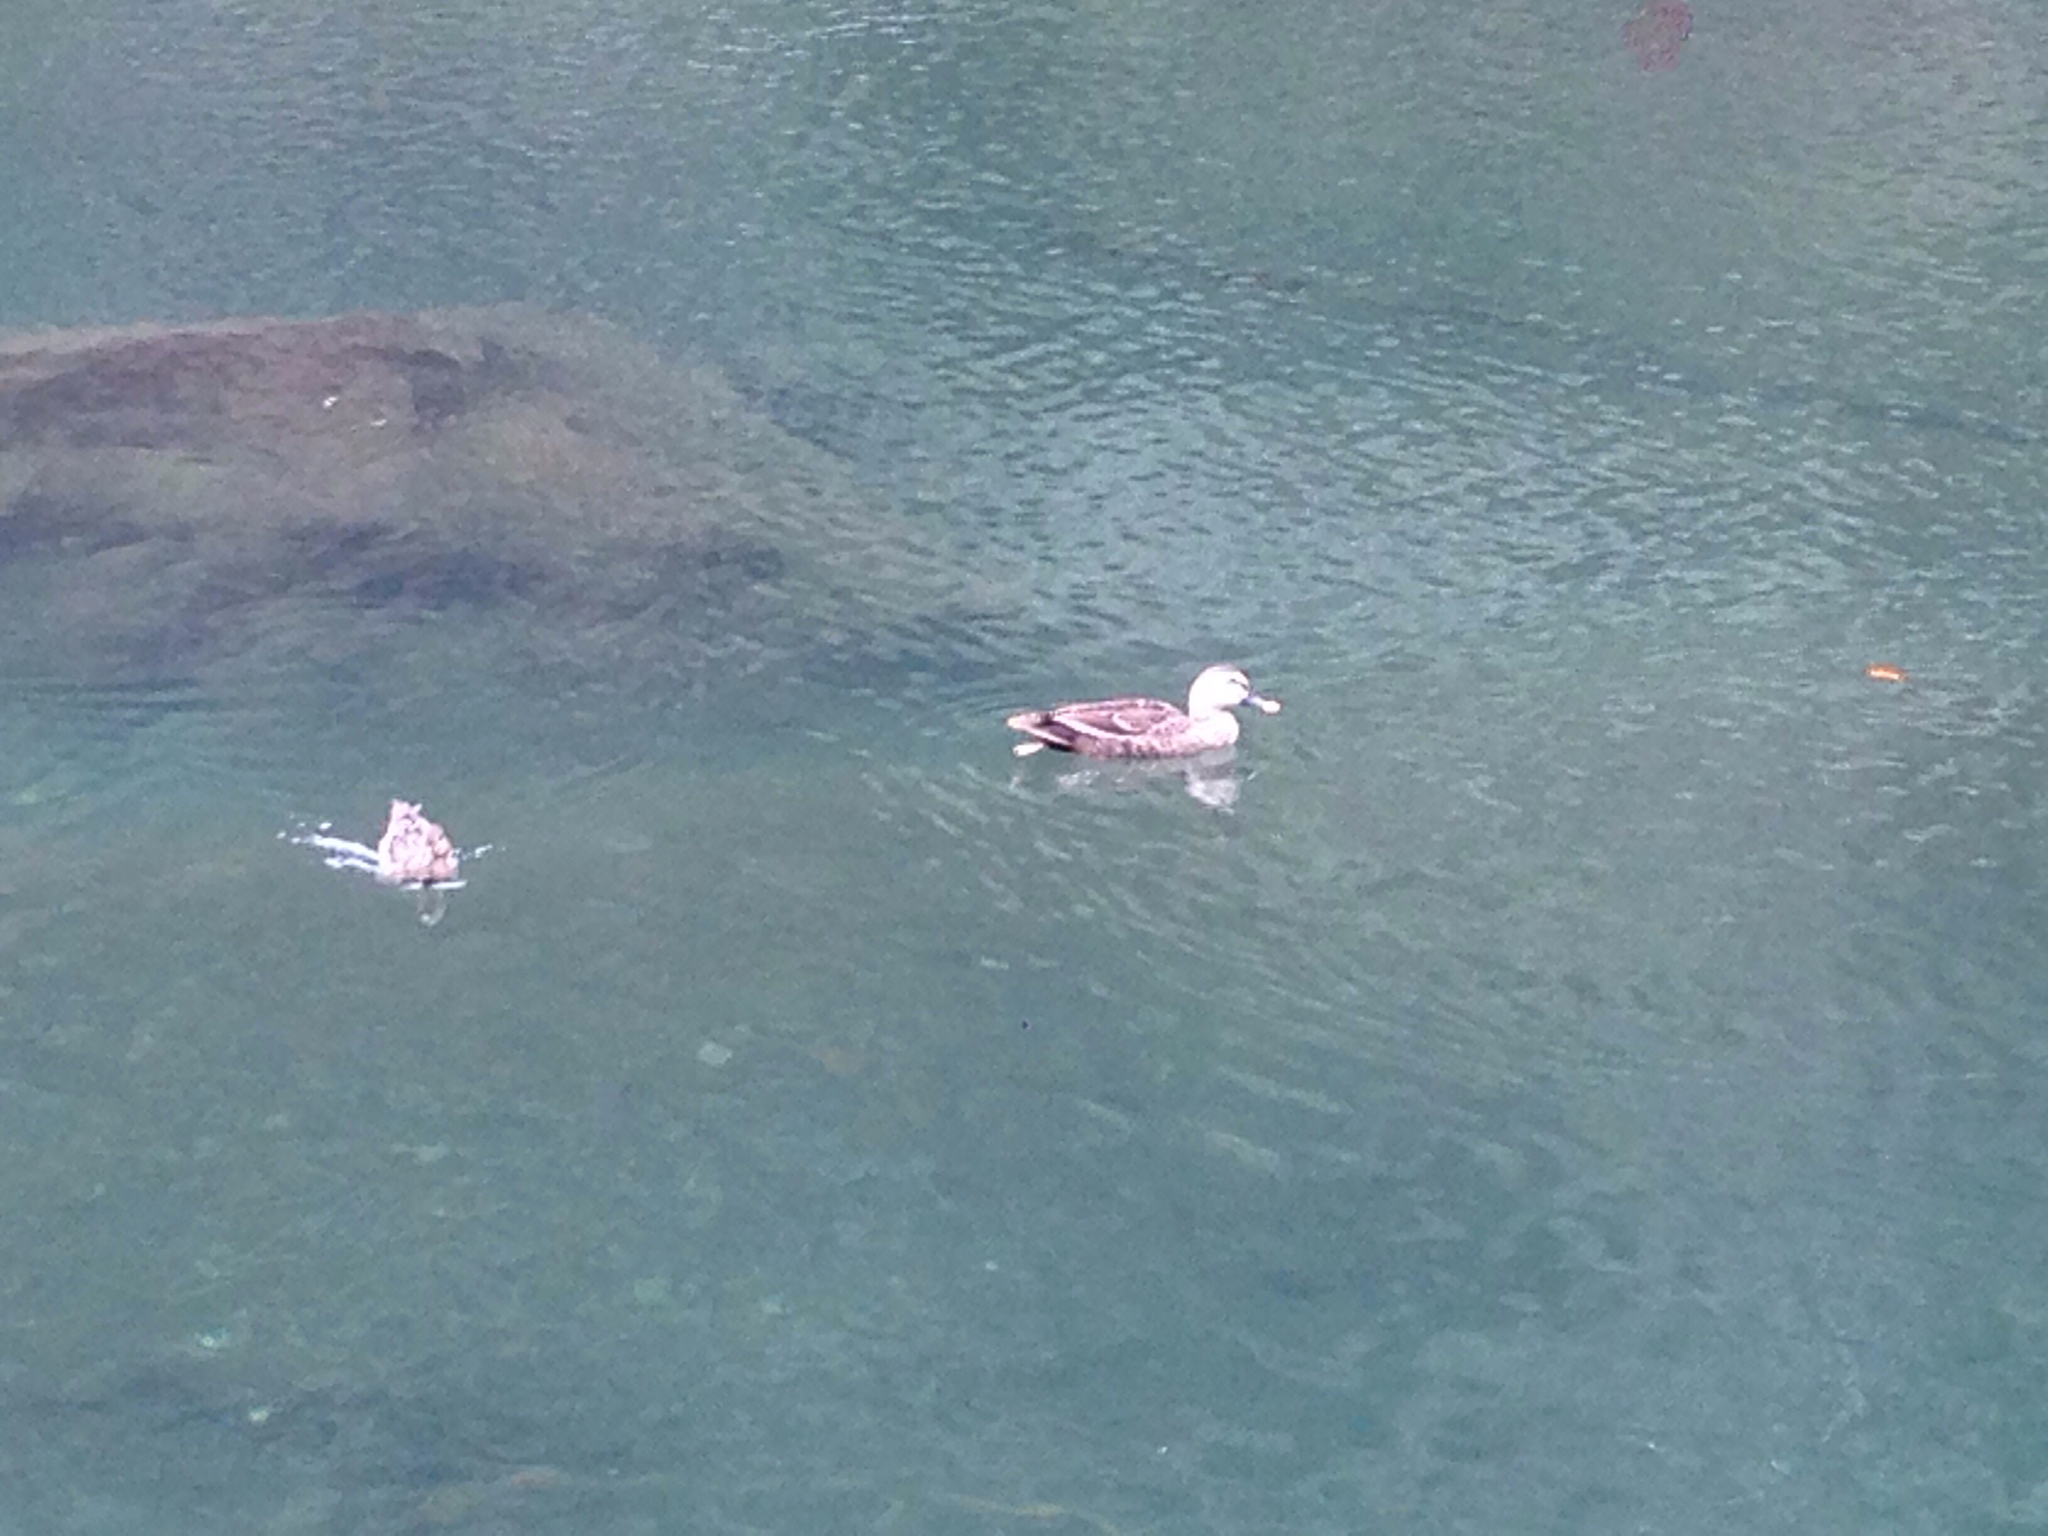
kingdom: Animalia
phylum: Chordata
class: Aves
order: Anseriformes
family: Anatidae
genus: Anas
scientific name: Anas zonorhyncha
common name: Eastern spot-billed duck
